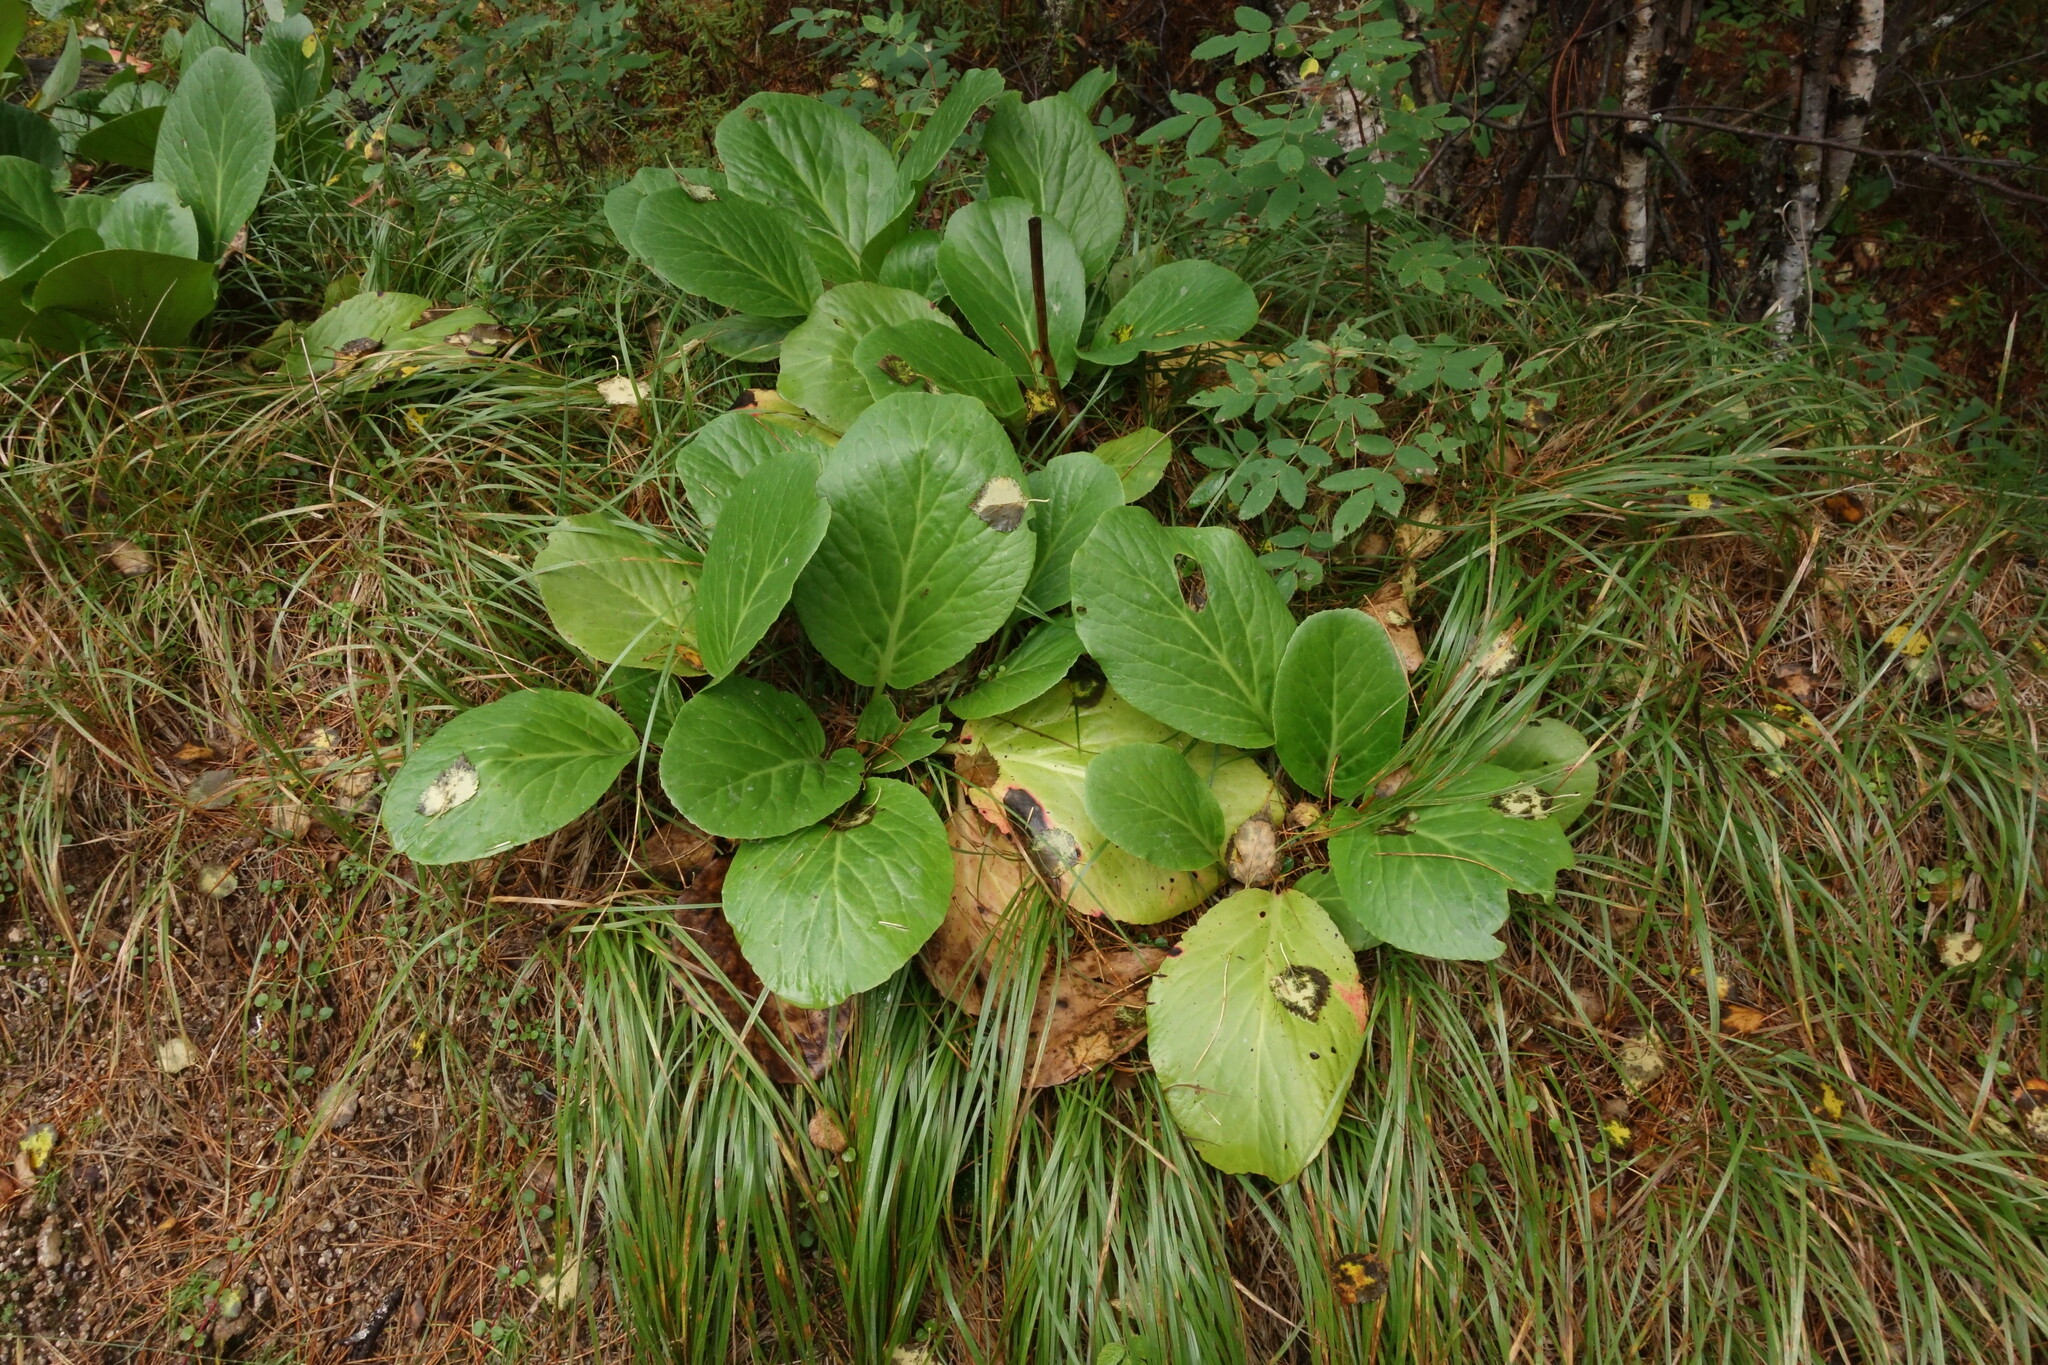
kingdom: Plantae
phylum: Tracheophyta
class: Magnoliopsida
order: Saxifragales
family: Saxifragaceae
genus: Bergenia
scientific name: Bergenia crassifolia
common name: Elephant-ears
